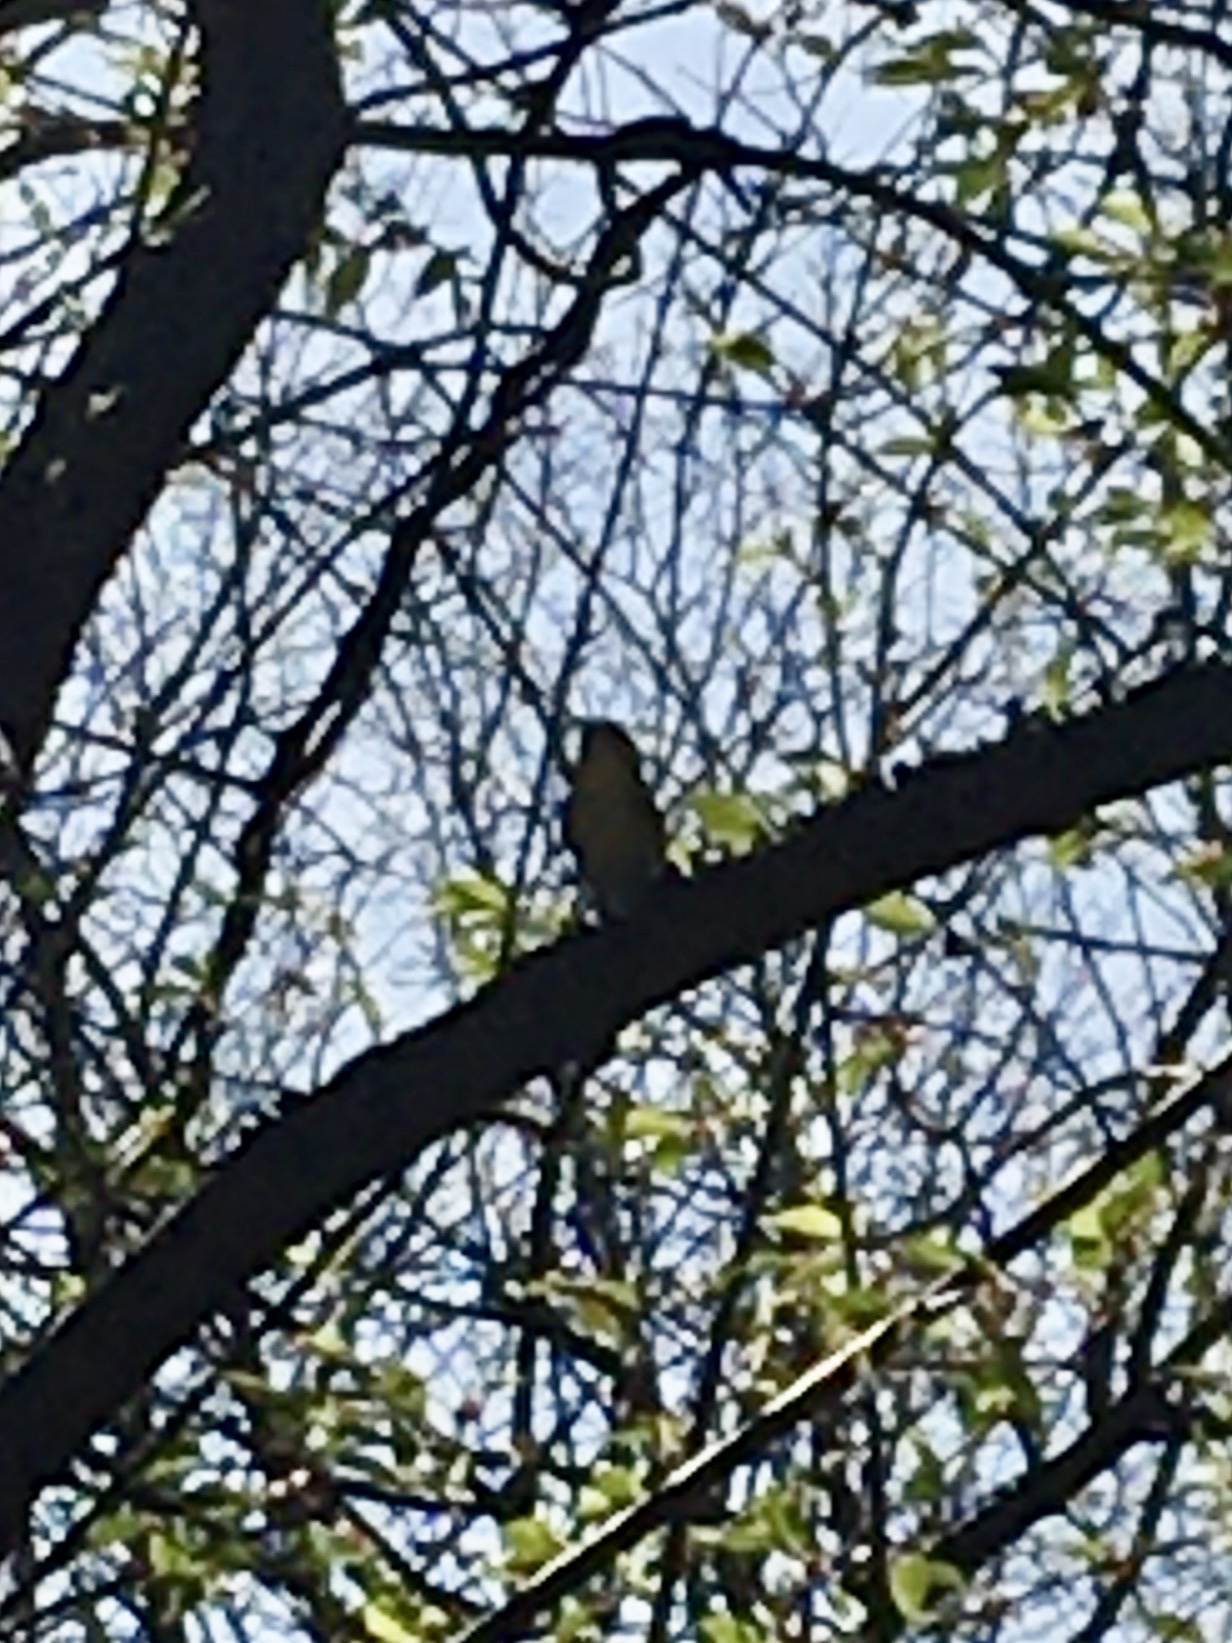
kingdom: Animalia
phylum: Chordata
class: Aves
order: Passeriformes
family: Vireonidae
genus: Vireo
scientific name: Vireo flavifrons
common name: Yellow-throated vireo
